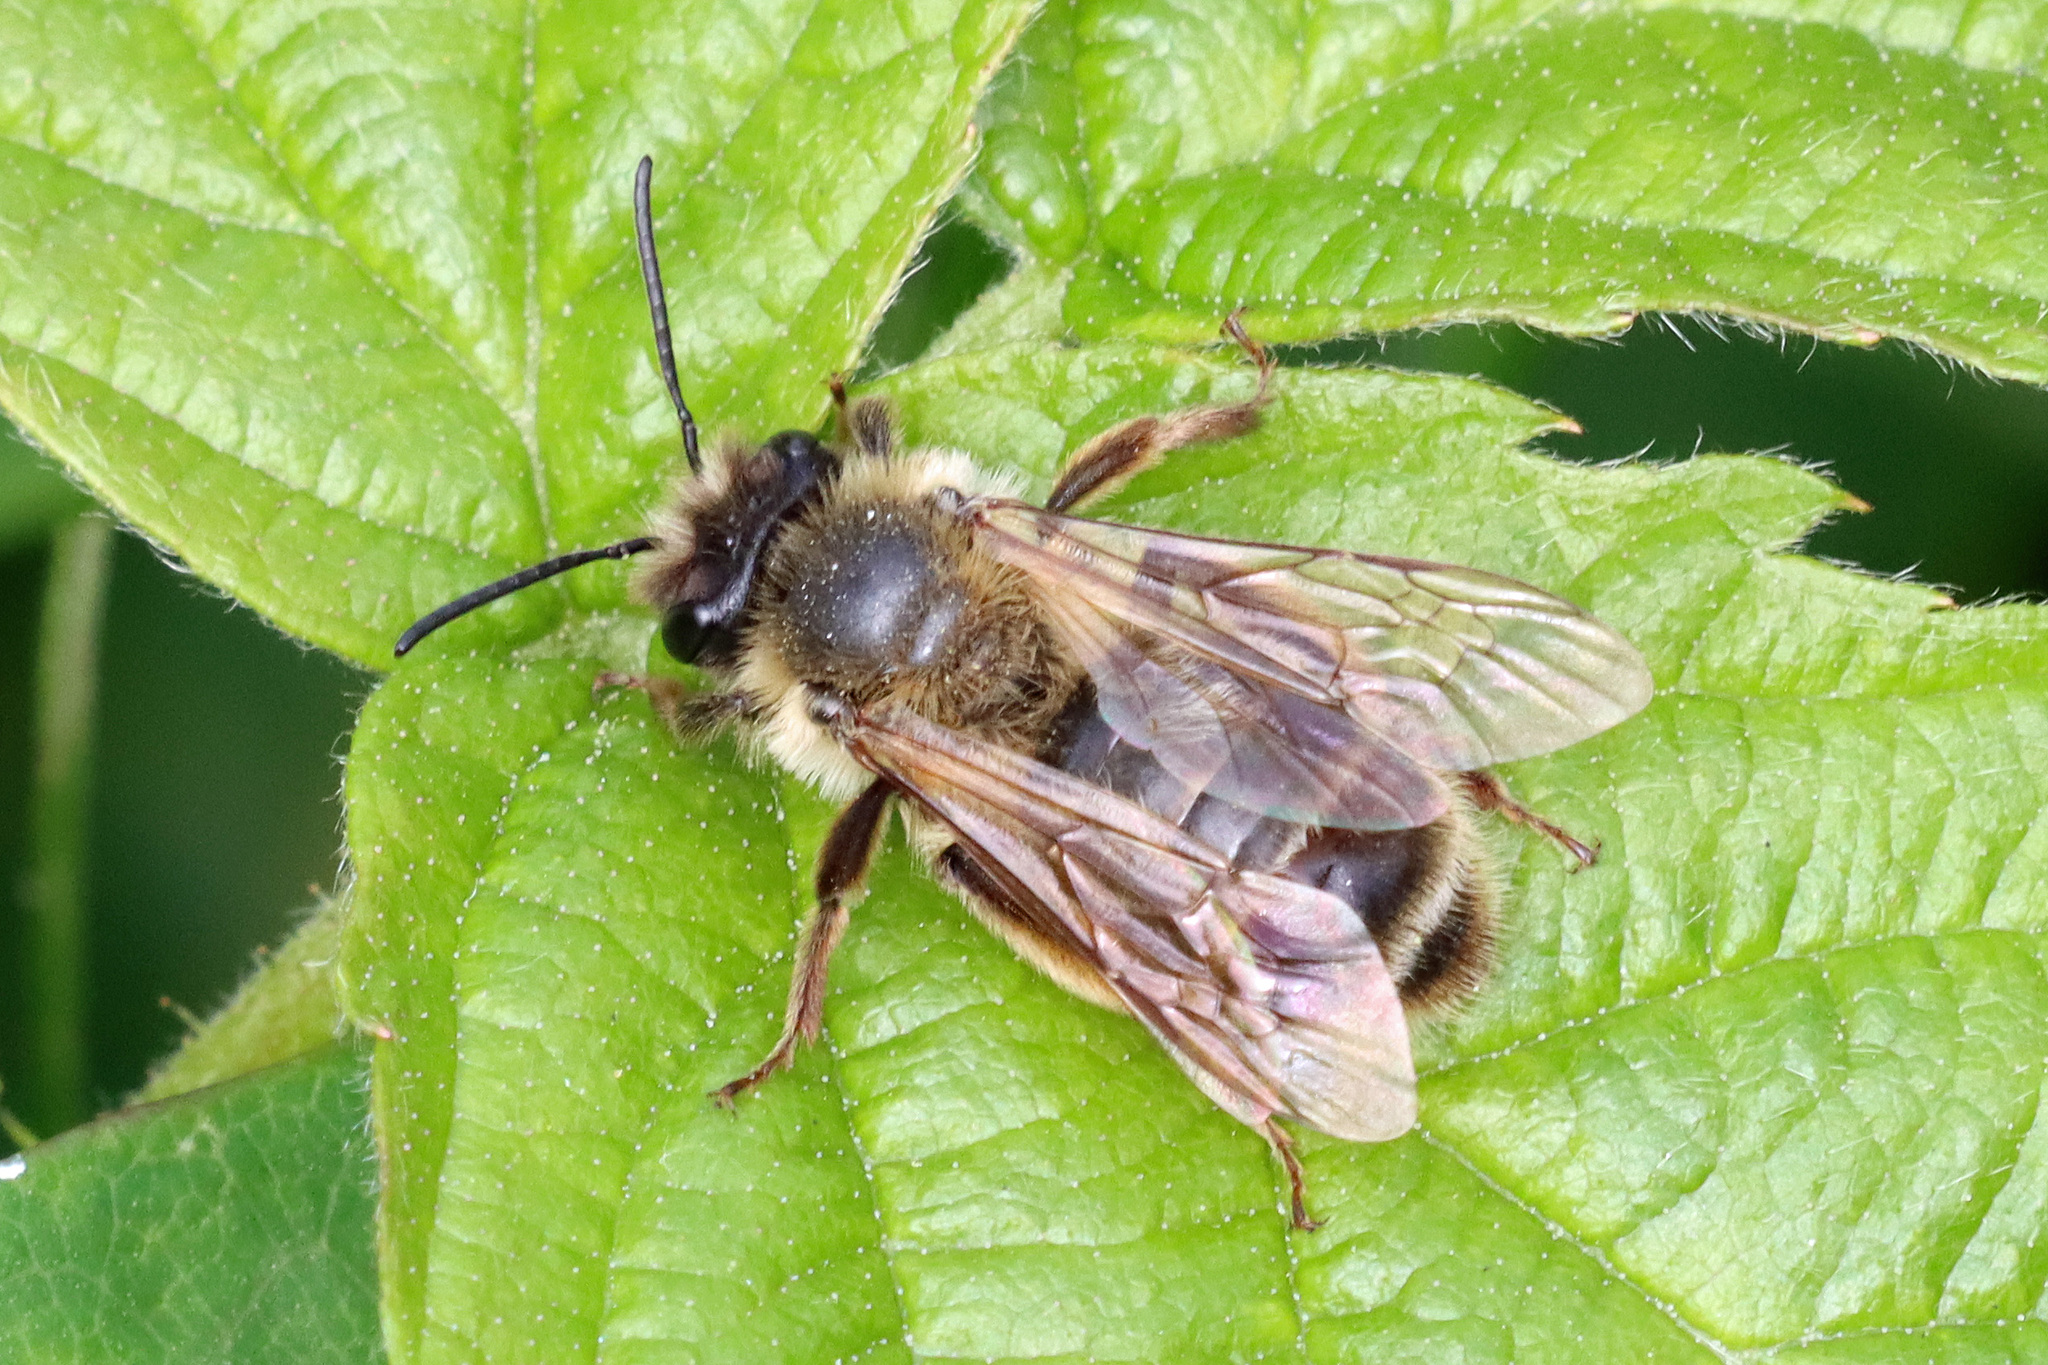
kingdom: Animalia
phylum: Arthropoda
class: Insecta
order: Hymenoptera
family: Andrenidae
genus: Andrena
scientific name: Andrena carantonica
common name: Chocolate mining bee
